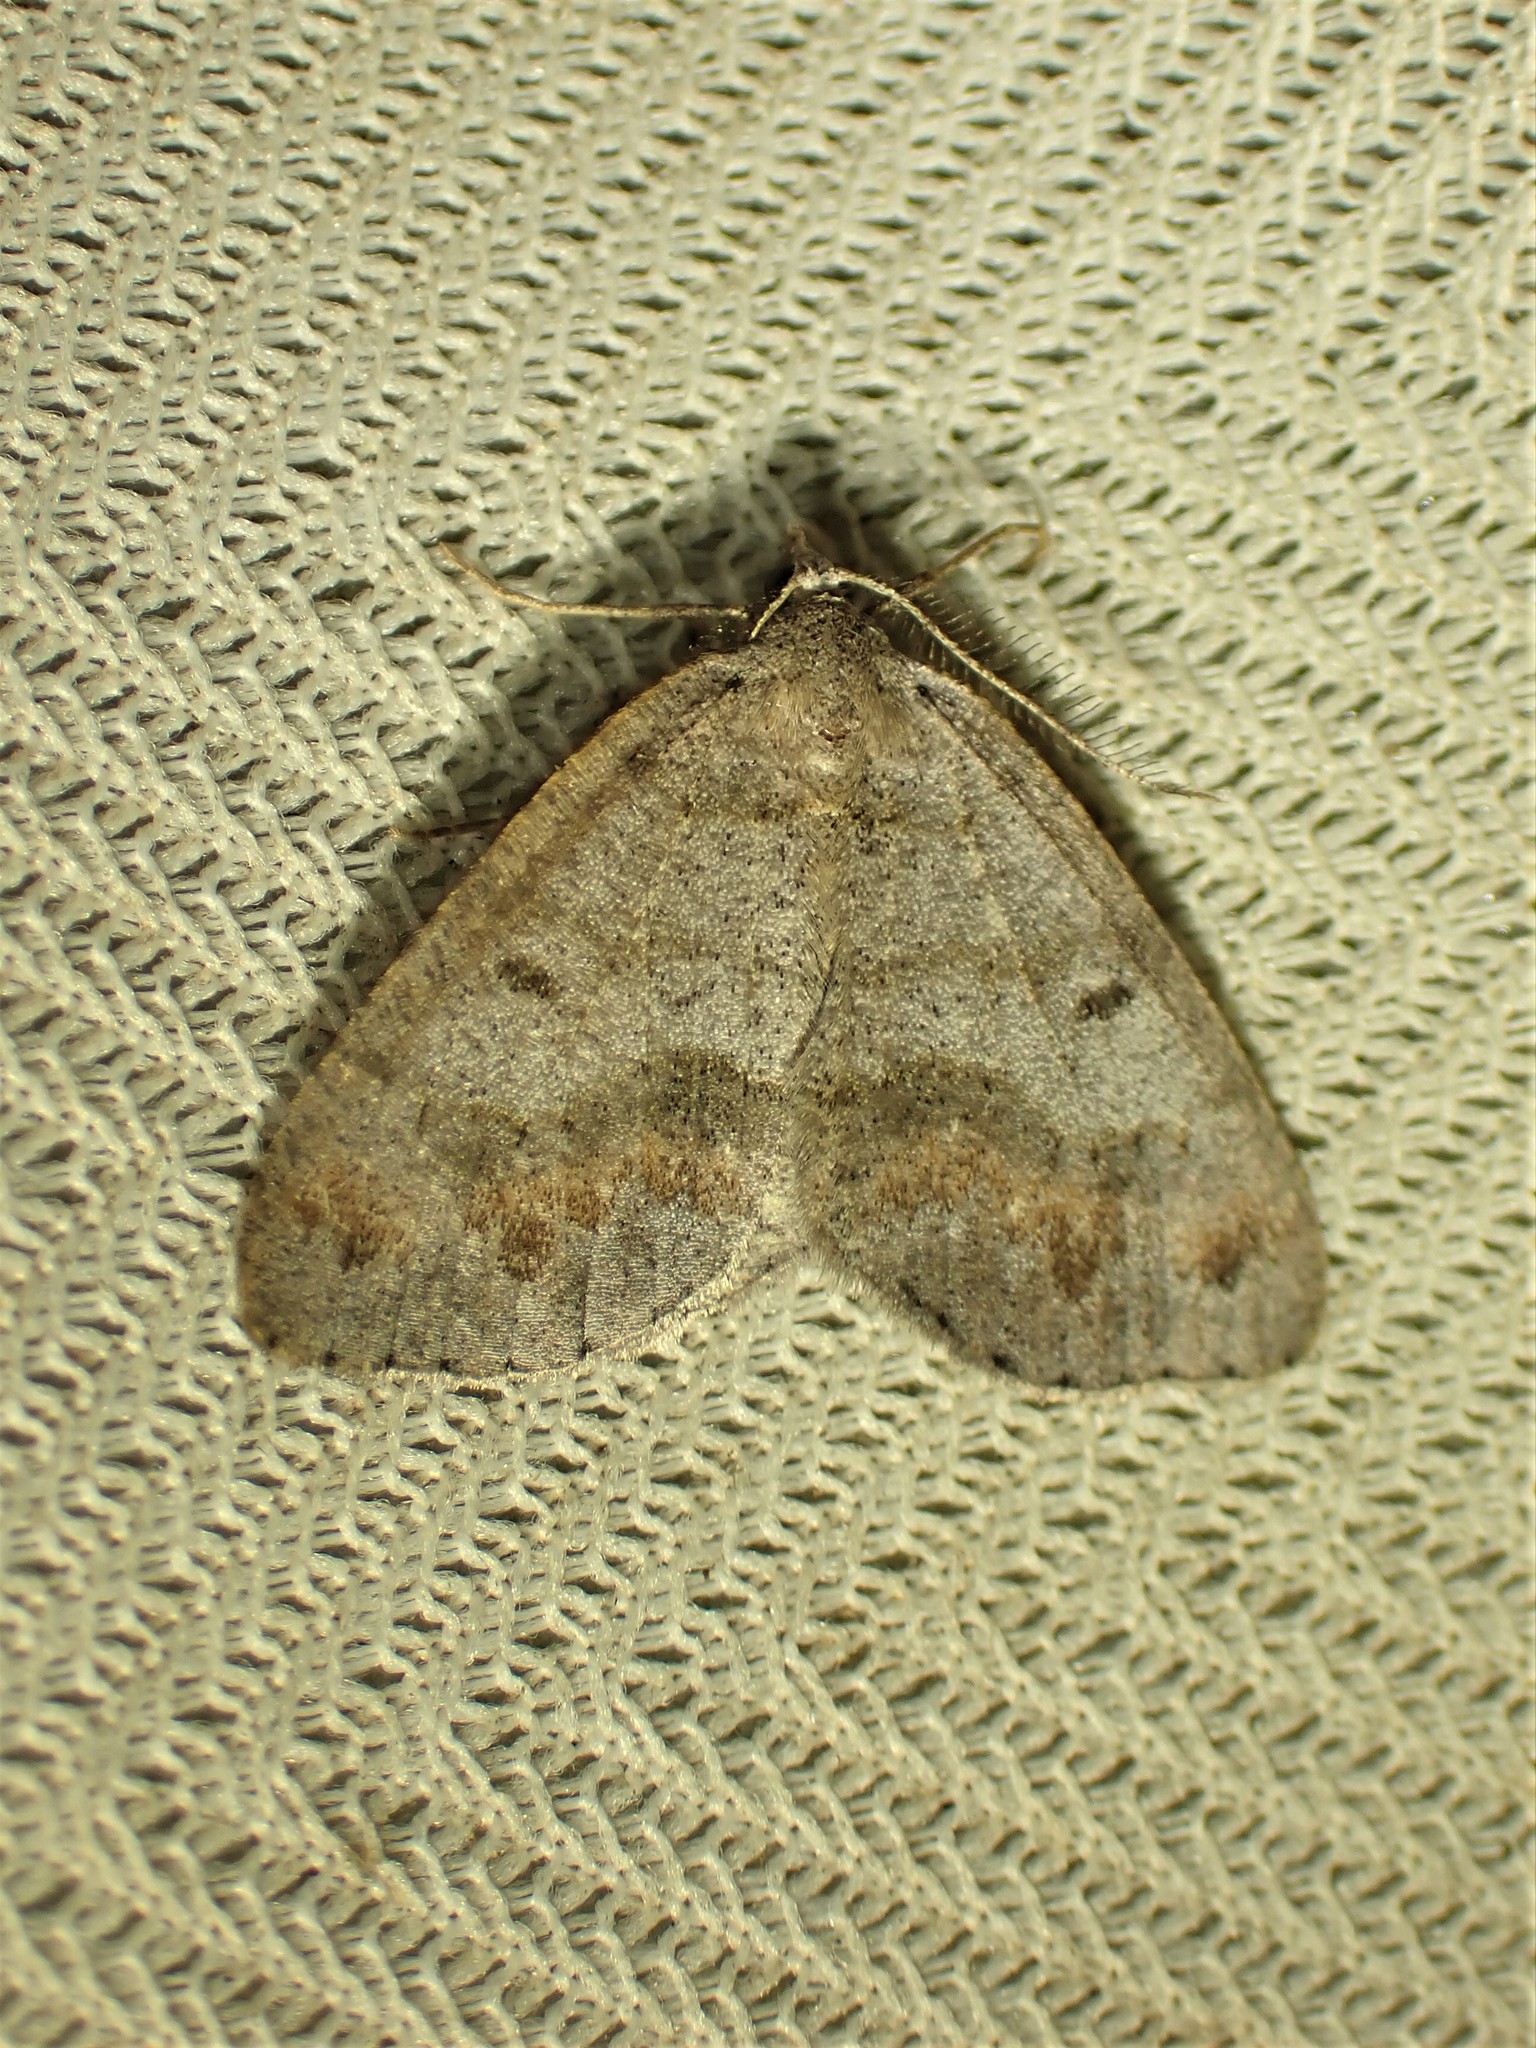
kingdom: Animalia
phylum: Arthropoda
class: Insecta
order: Lepidoptera
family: Geometridae
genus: Macaria
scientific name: Macaria loricaria
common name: False bruce spanworm
